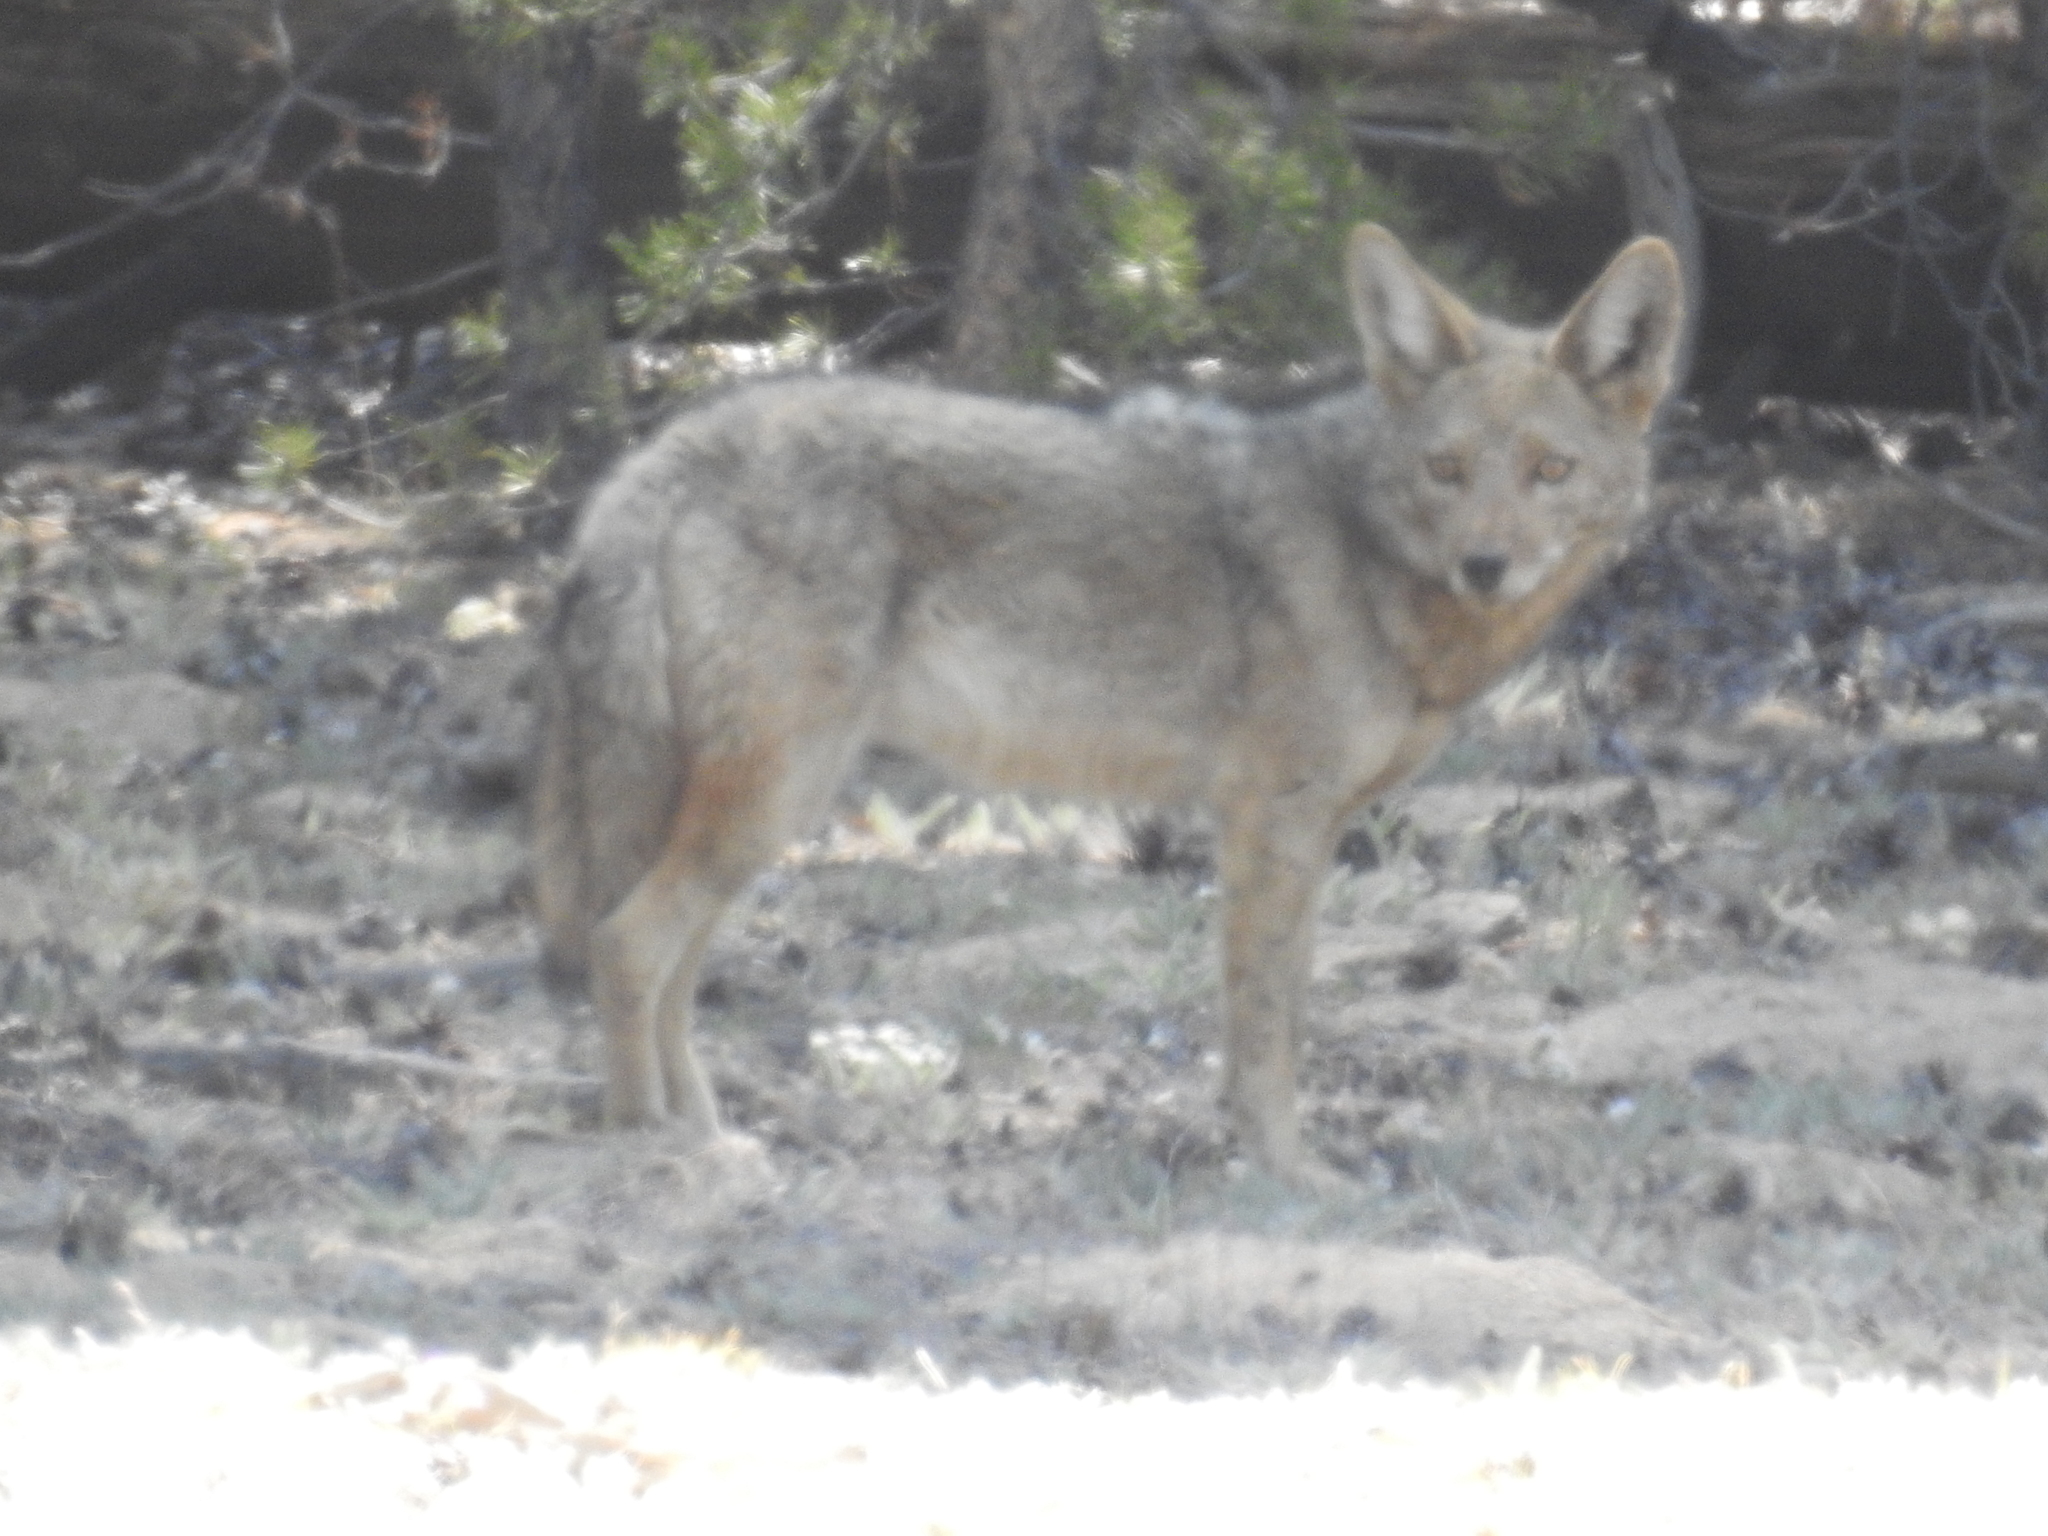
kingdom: Animalia
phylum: Chordata
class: Mammalia
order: Carnivora
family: Canidae
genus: Canis
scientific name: Canis latrans
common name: Coyote
